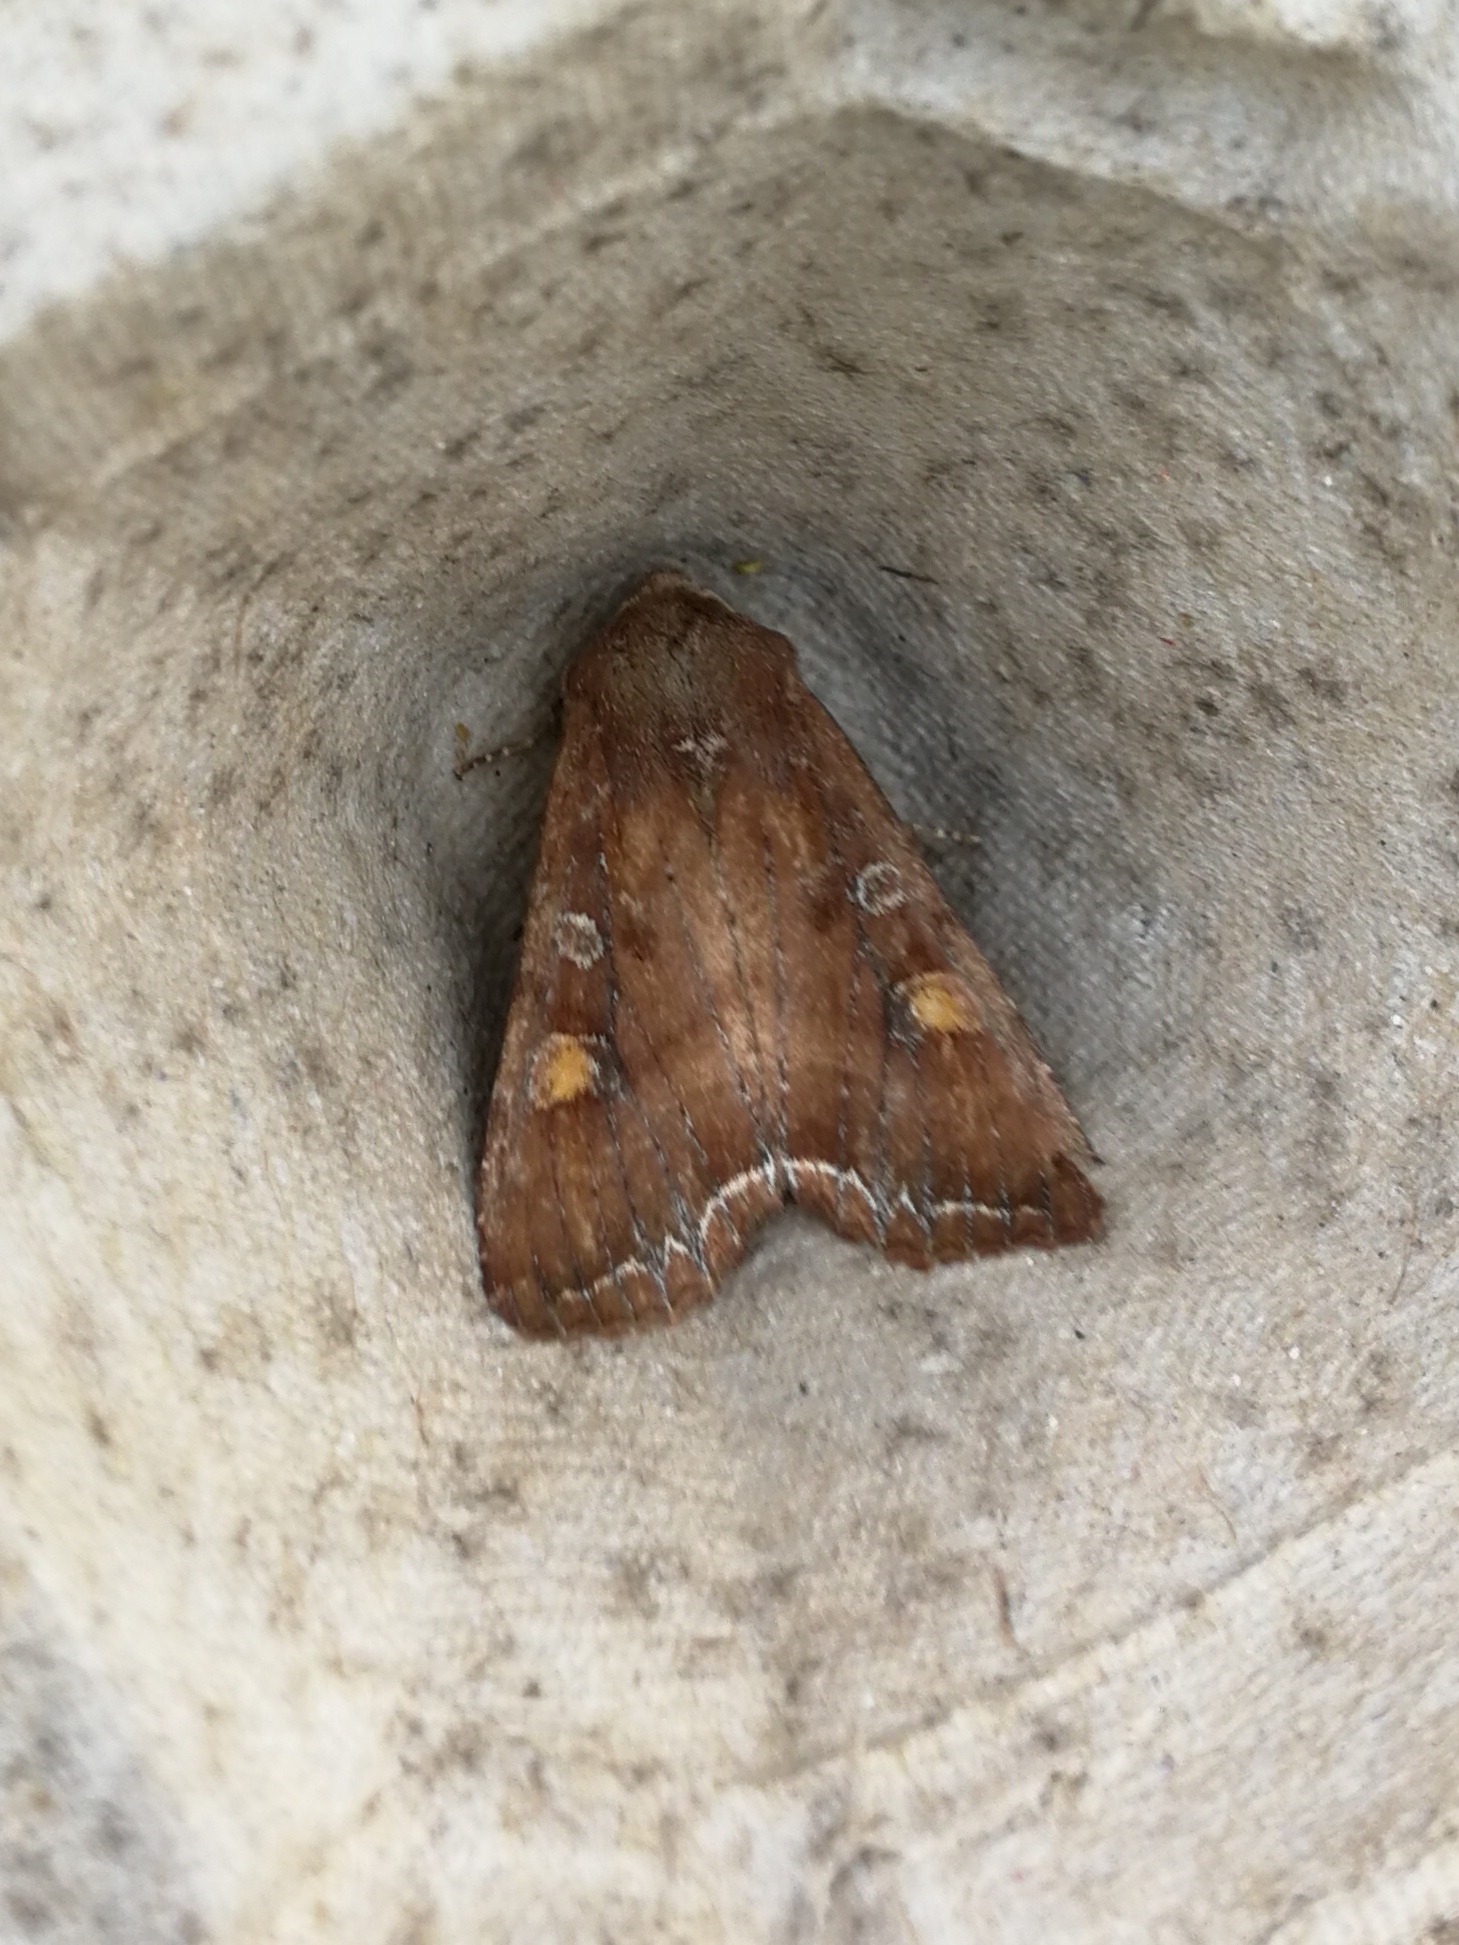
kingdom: Animalia
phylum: Arthropoda
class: Insecta
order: Lepidoptera
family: Noctuidae
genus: Lacanobia
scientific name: Lacanobia oleracea
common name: Bright-line brown-eye
